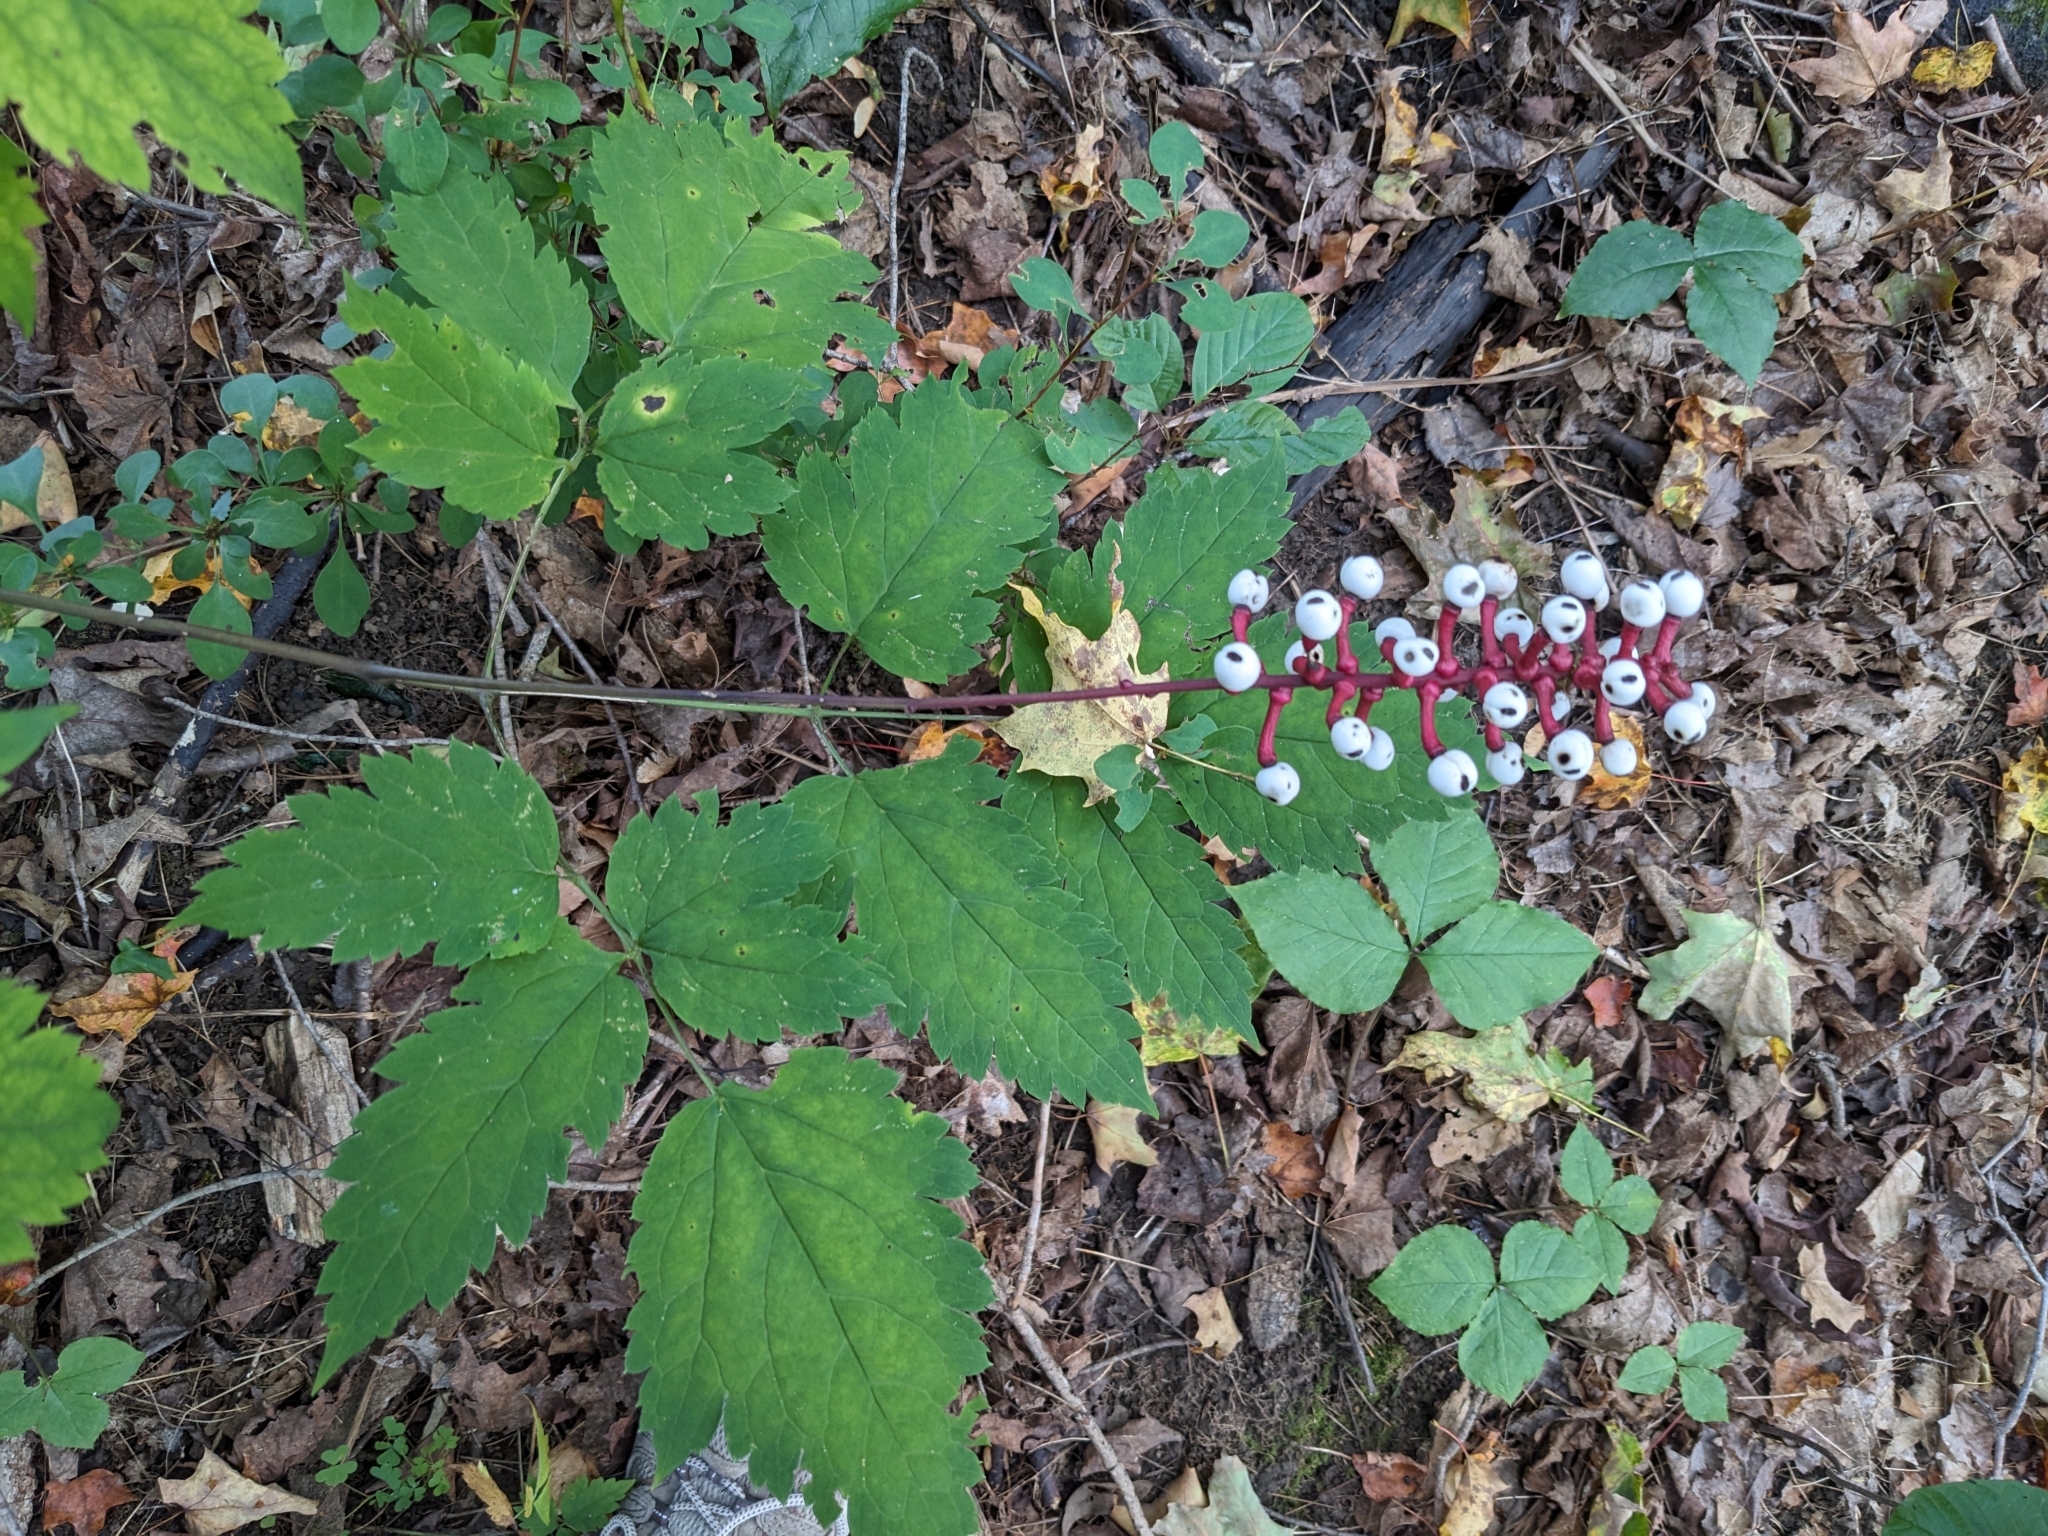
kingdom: Plantae
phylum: Tracheophyta
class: Magnoliopsida
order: Ranunculales
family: Ranunculaceae
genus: Actaea
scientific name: Actaea pachypoda
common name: Doll's-eyes
